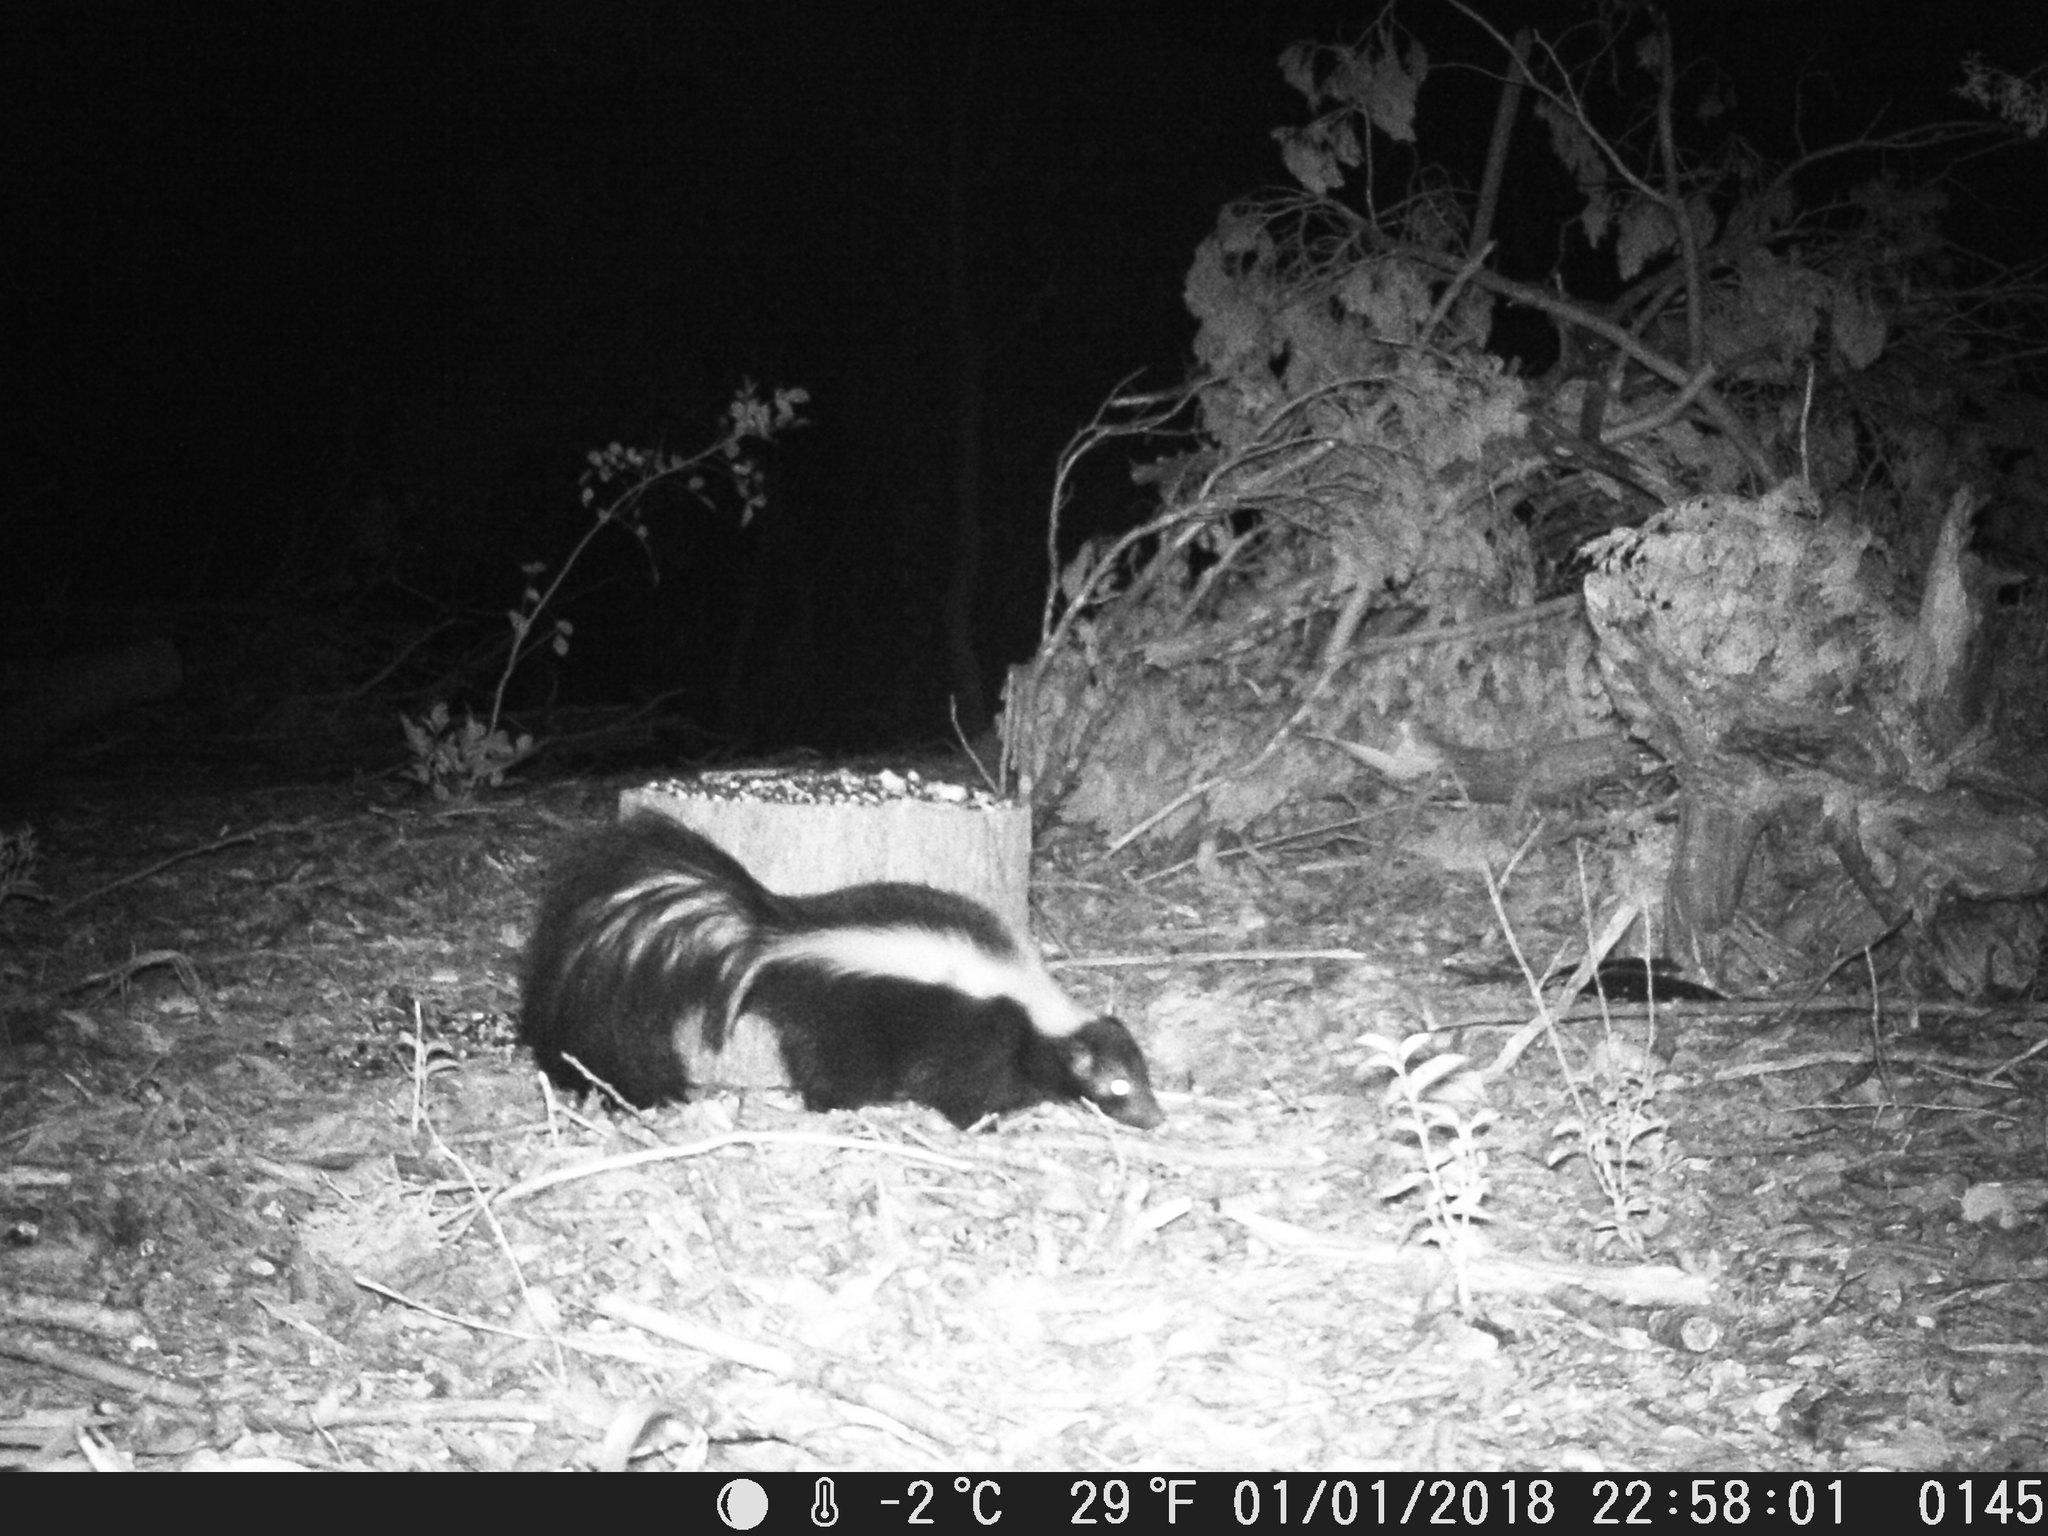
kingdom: Animalia
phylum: Chordata
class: Mammalia
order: Carnivora
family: Mephitidae
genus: Mephitis
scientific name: Mephitis mephitis
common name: Striped skunk
